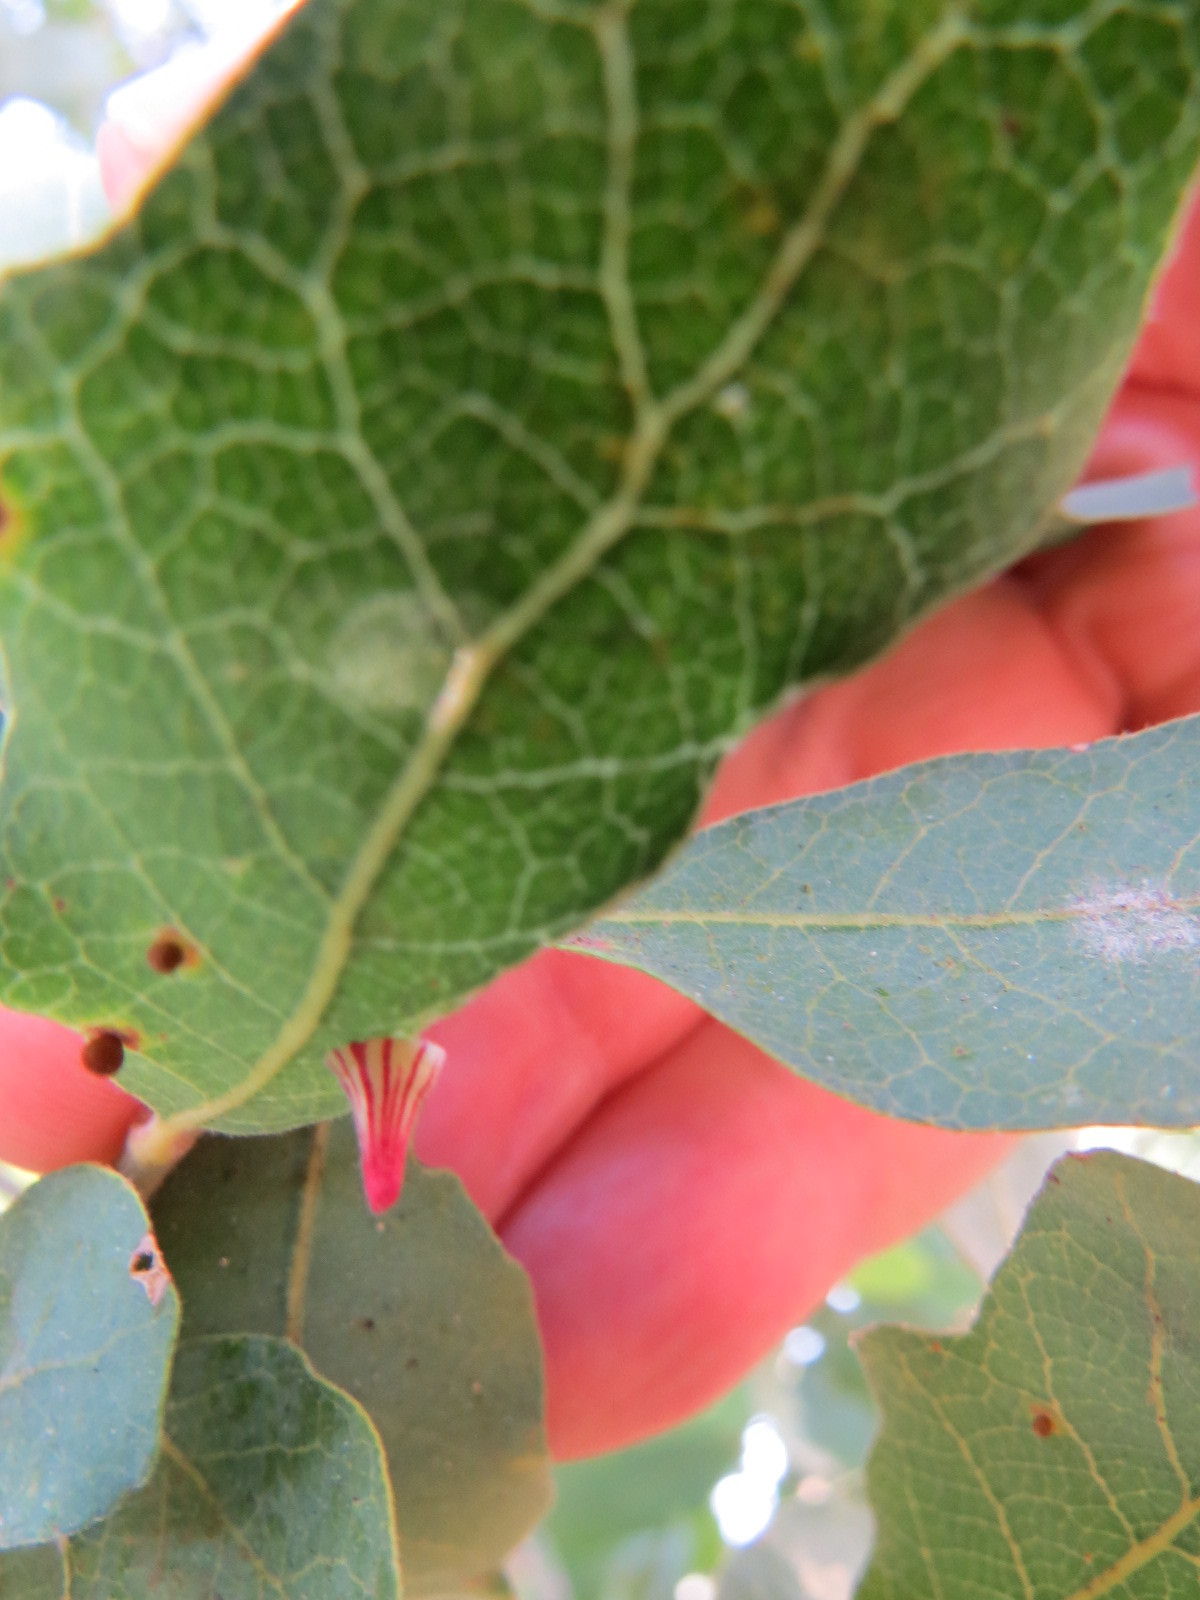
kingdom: Animalia
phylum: Arthropoda
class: Insecta
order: Hymenoptera
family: Cynipidae
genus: Andricus
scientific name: Andricus
